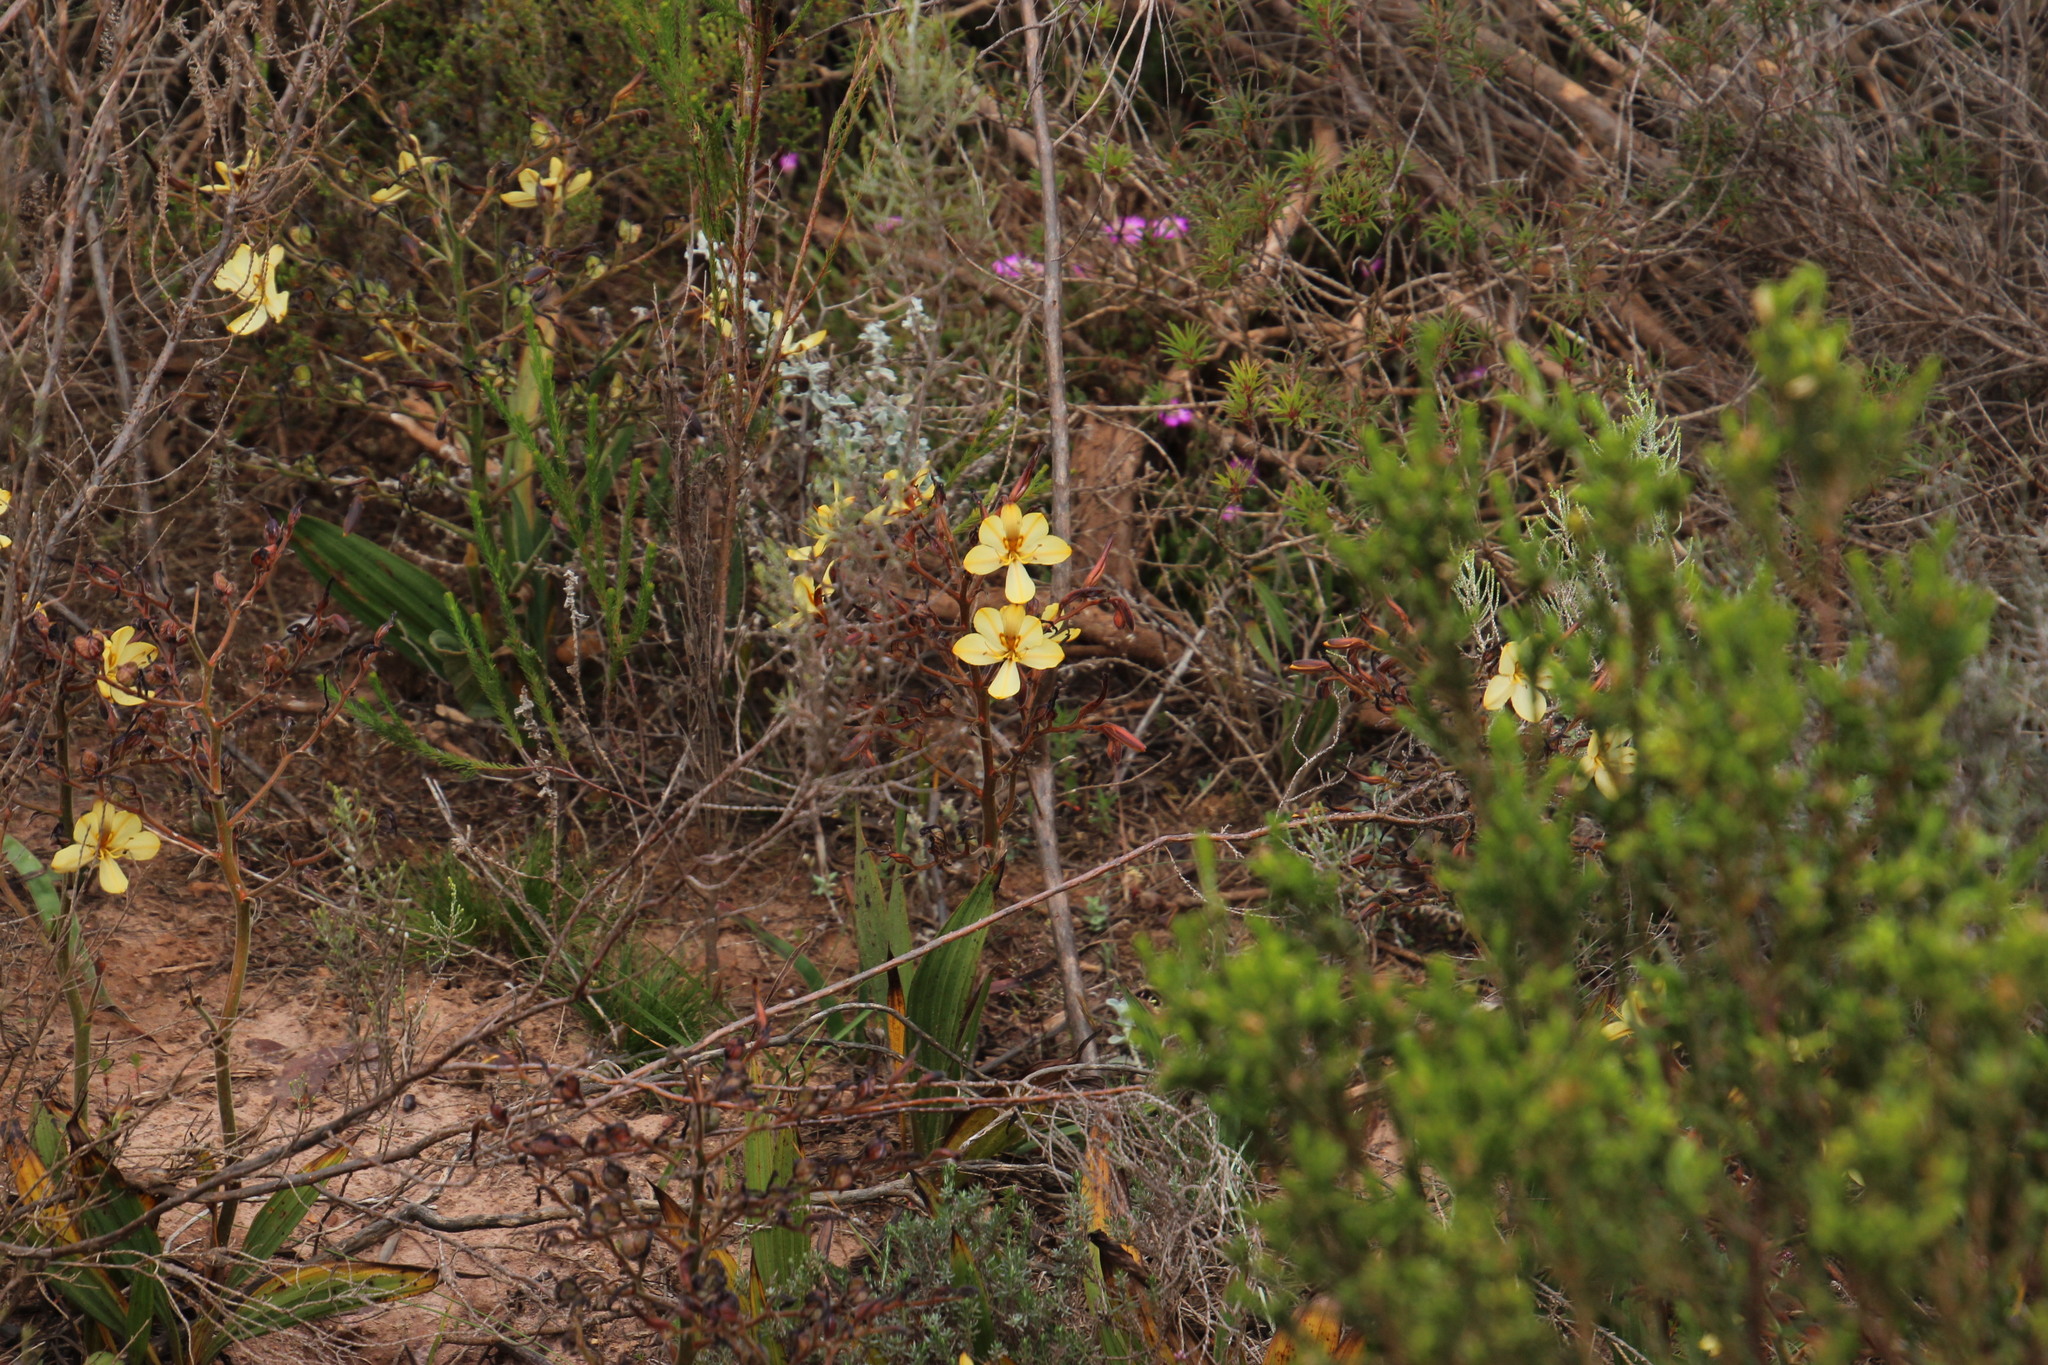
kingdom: Plantae
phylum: Tracheophyta
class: Liliopsida
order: Commelinales
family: Haemodoraceae
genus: Wachendorfia
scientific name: Wachendorfia paniculata
